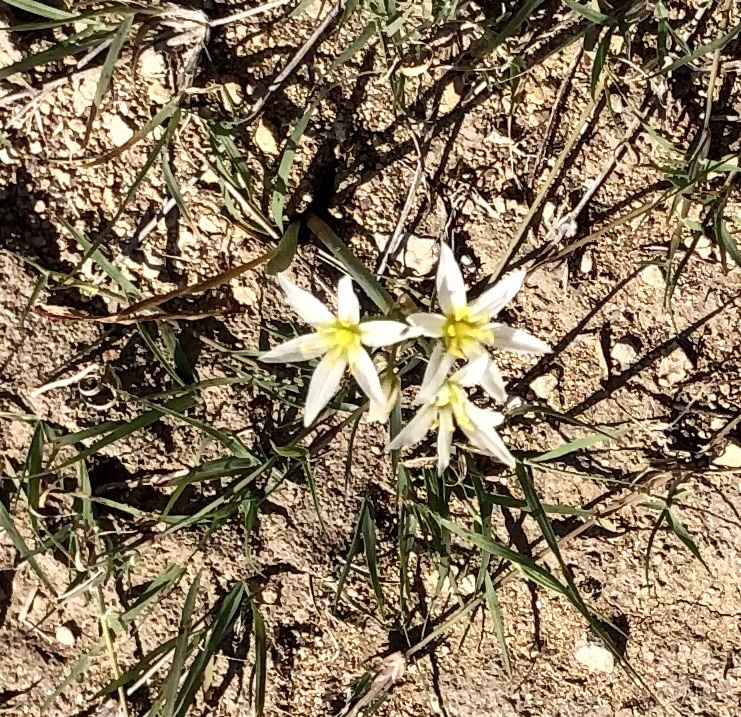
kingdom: Plantae
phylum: Tracheophyta
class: Liliopsida
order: Asparagales
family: Amaryllidaceae
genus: Nothoscordum
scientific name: Nothoscordum bivalve
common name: Crow-poison
